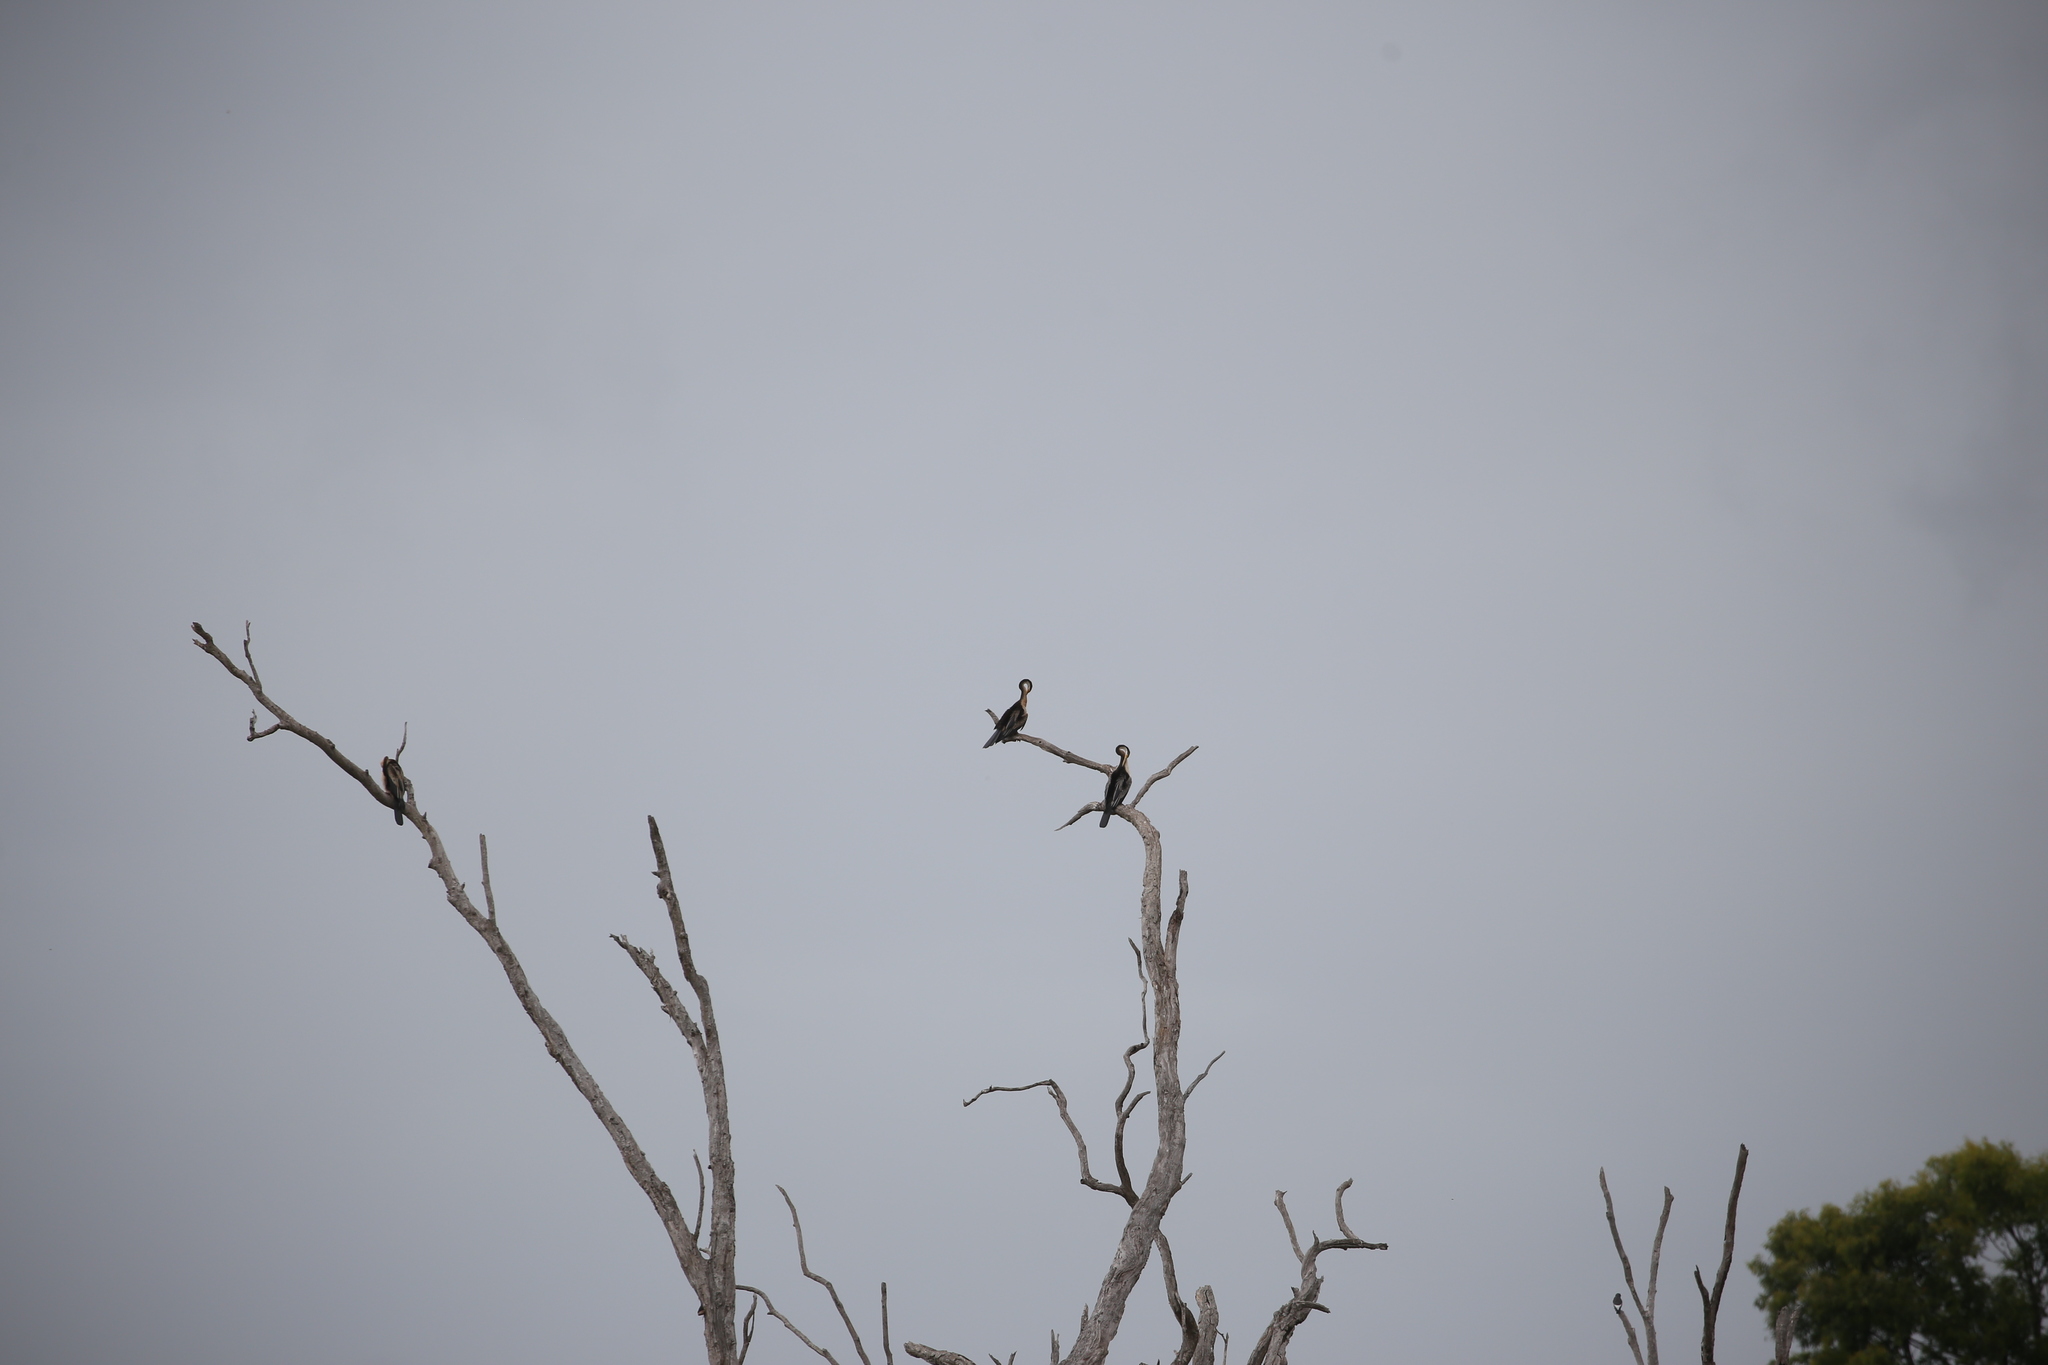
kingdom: Animalia
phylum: Chordata
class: Aves
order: Suliformes
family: Anhingidae
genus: Anhinga
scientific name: Anhinga novaehollandiae
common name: Australasian darter
